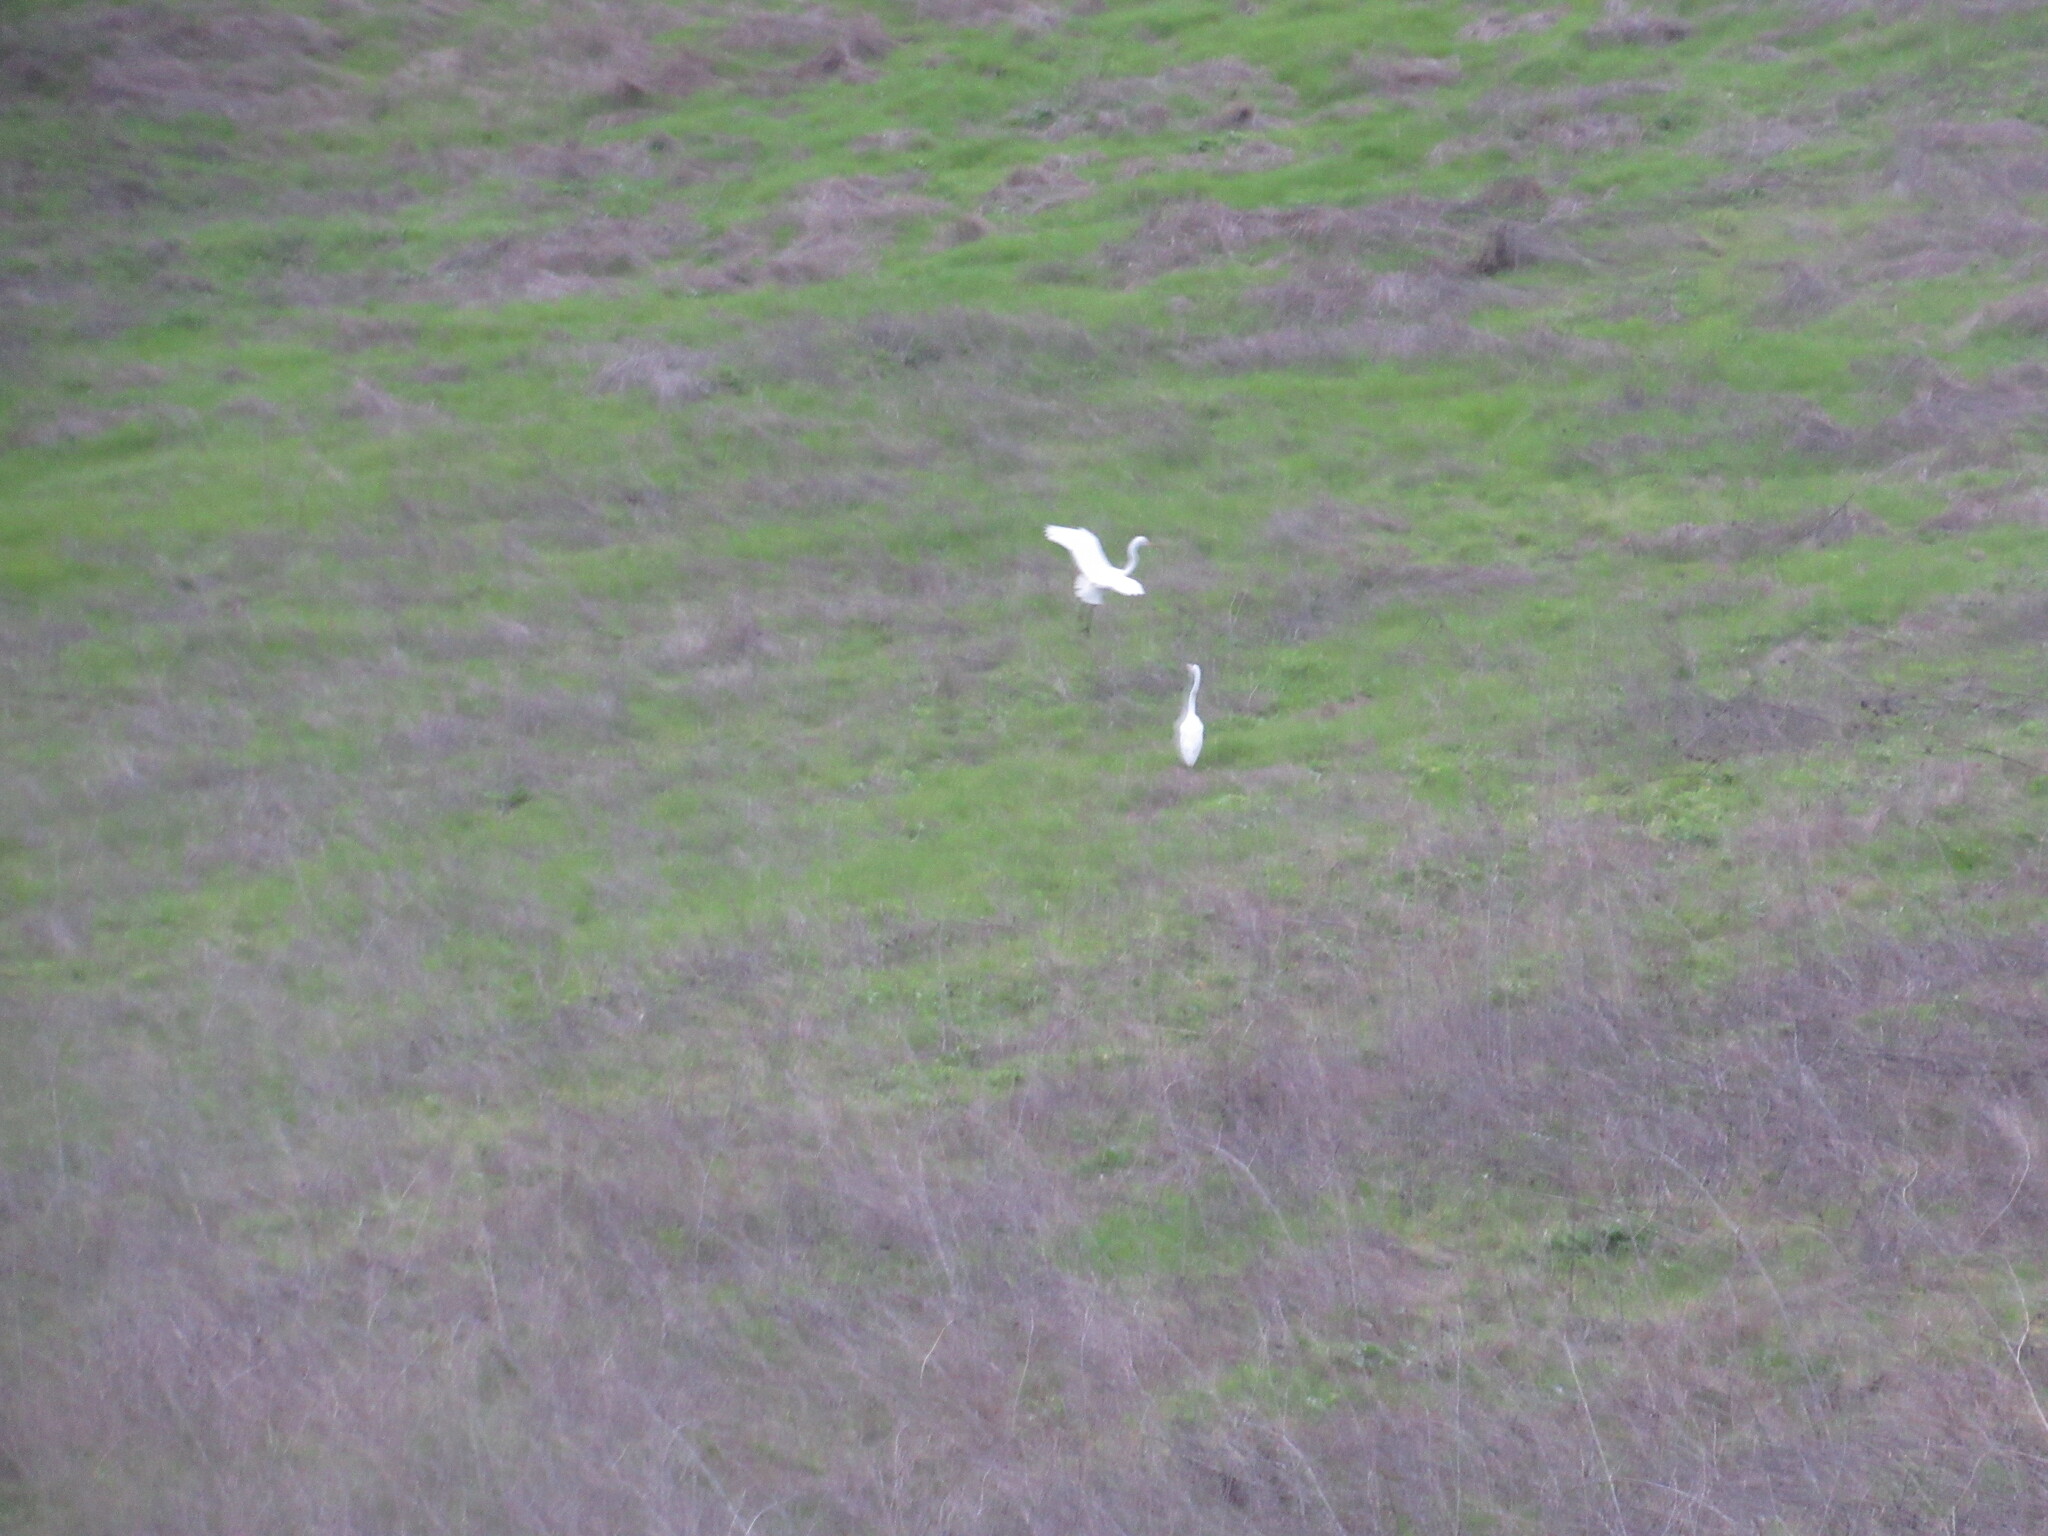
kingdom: Animalia
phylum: Chordata
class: Aves
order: Pelecaniformes
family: Ardeidae
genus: Ardea
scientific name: Ardea alba
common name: Great egret
